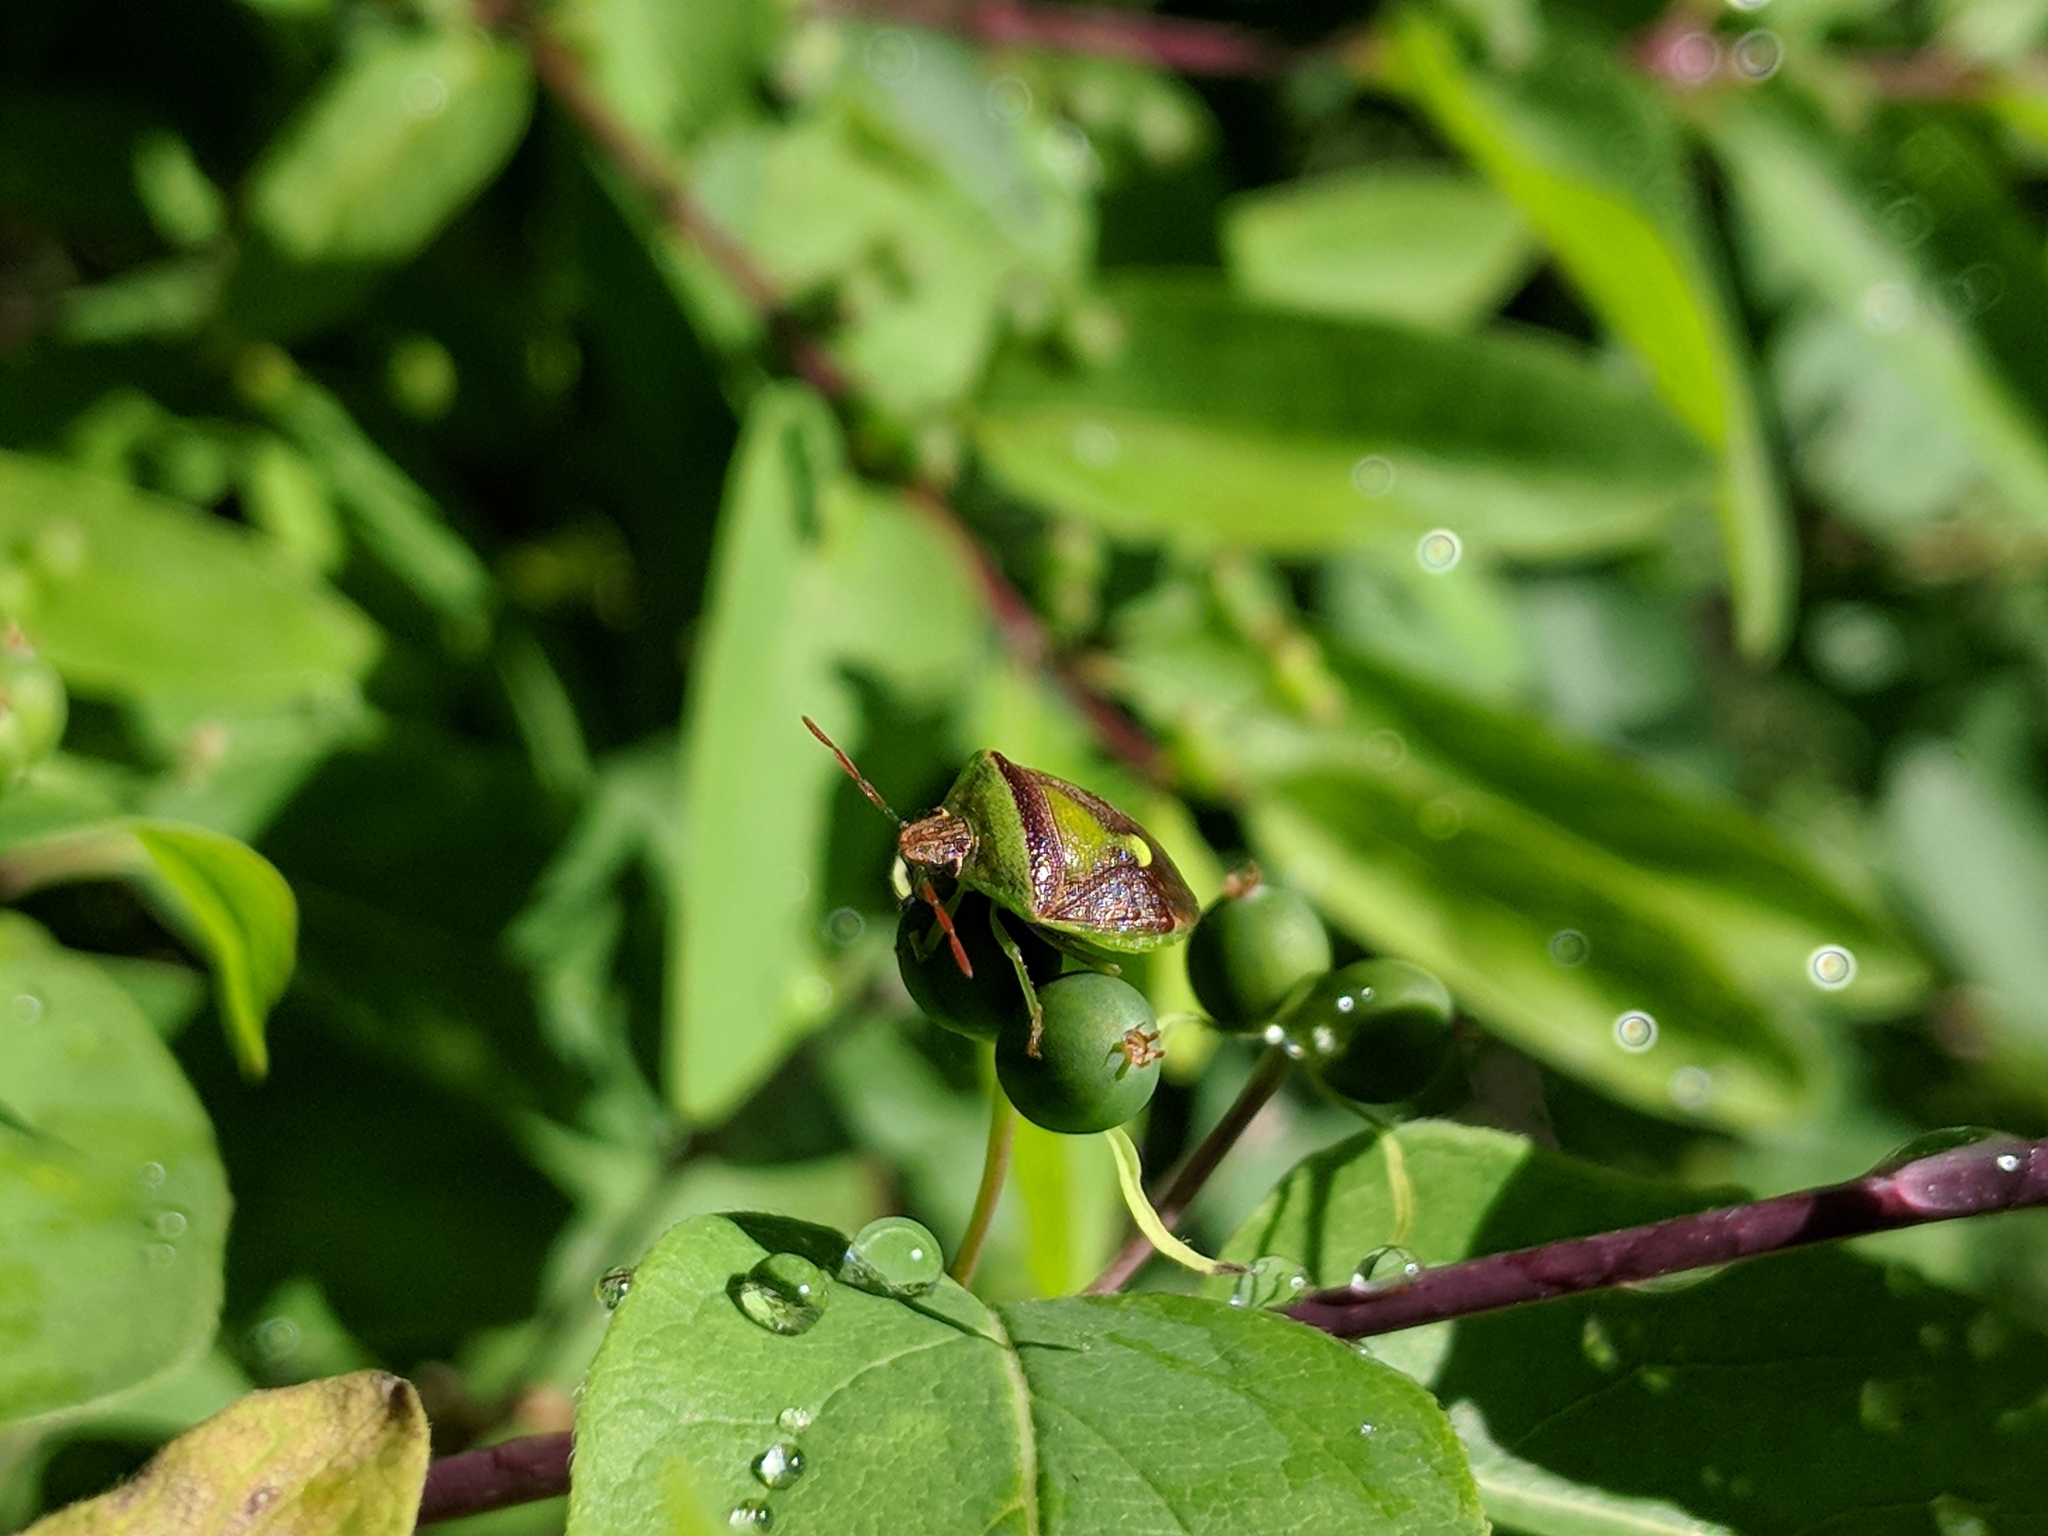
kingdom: Animalia
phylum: Arthropoda
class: Insecta
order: Hemiptera
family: Pentatomidae
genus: Banasa
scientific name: Banasa dimidiata
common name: Green burgundy stink bug
